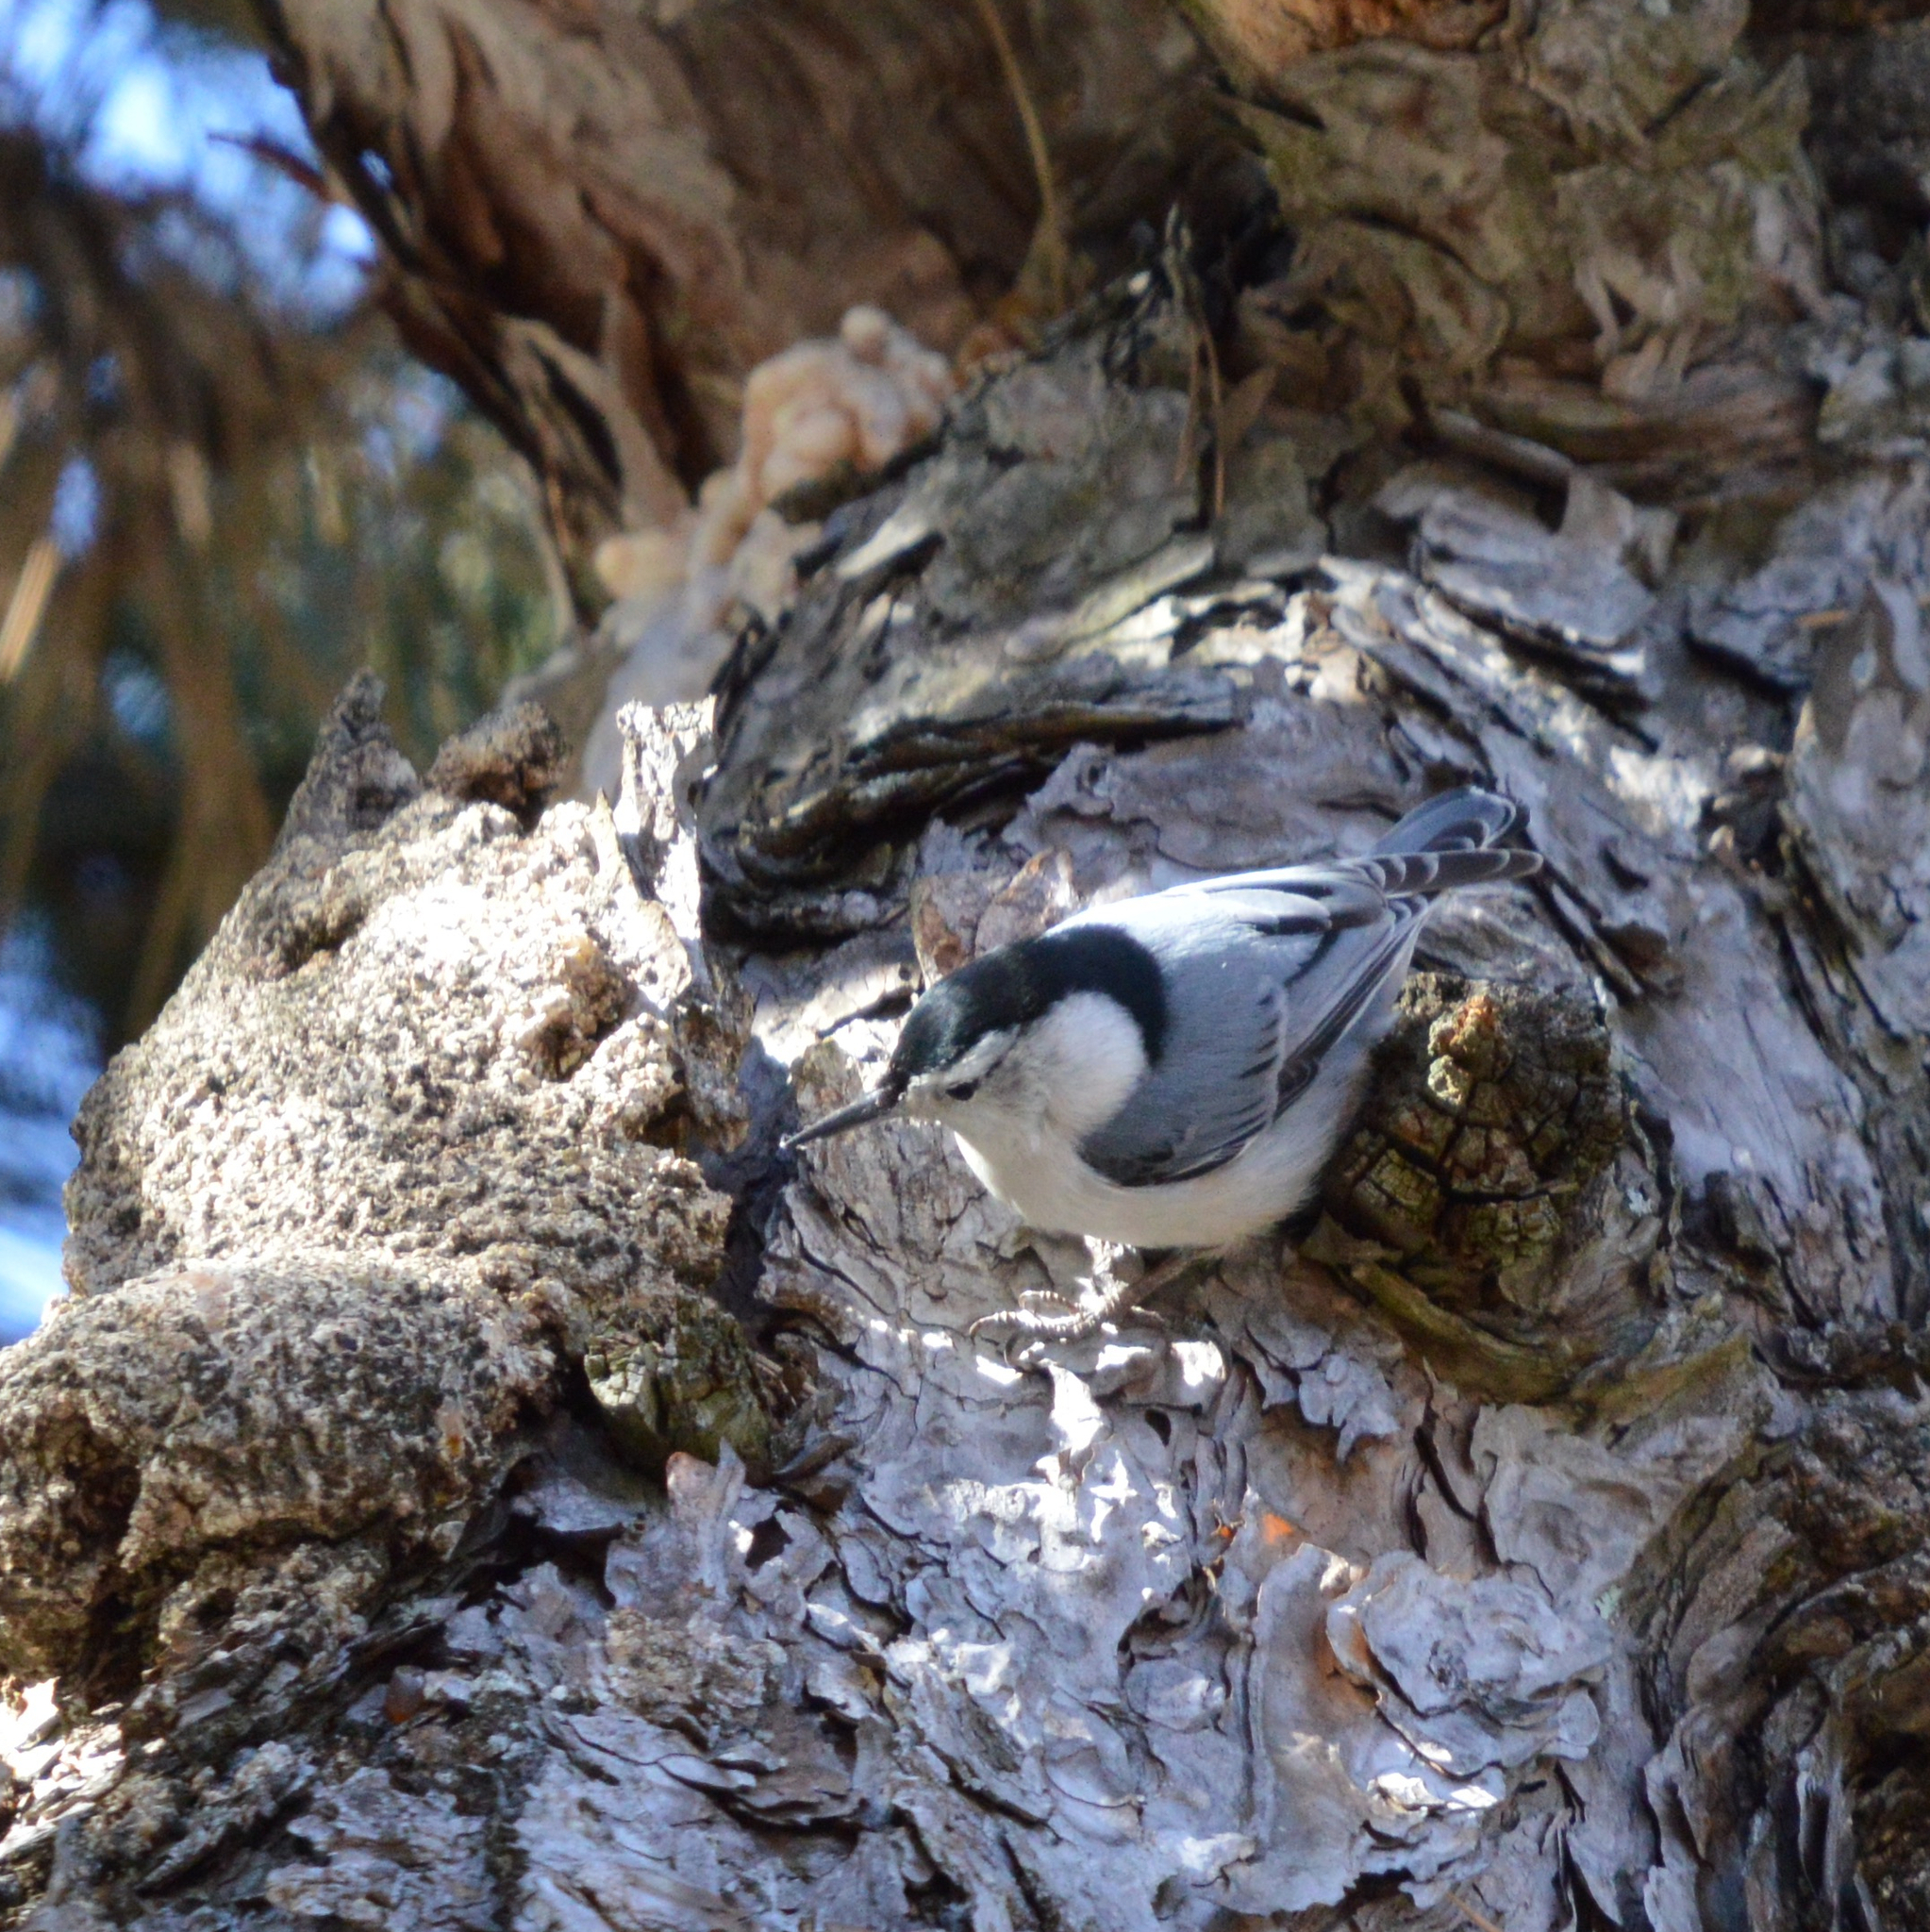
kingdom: Animalia
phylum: Chordata
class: Aves
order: Passeriformes
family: Sittidae
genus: Sitta
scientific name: Sitta carolinensis
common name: White-breasted nuthatch
